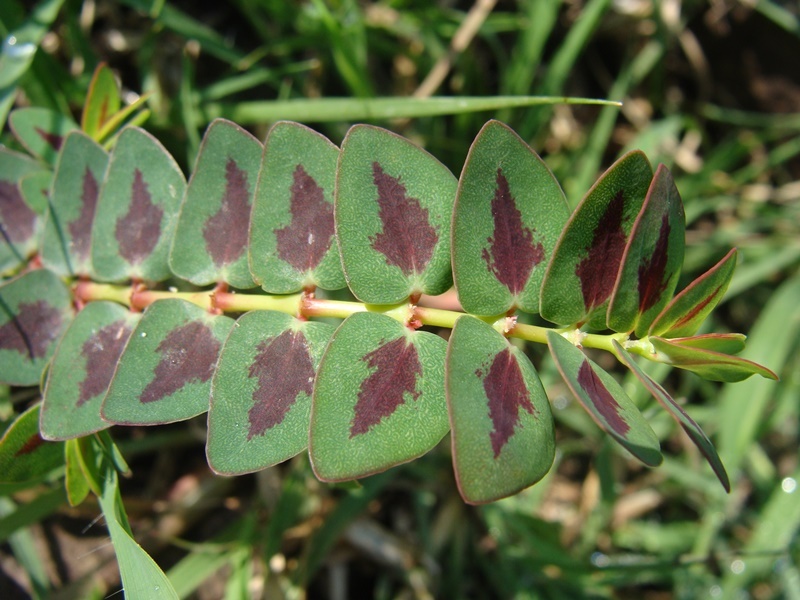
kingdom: Plantae
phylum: Tracheophyta
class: Magnoliopsida
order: Malpighiales
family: Euphorbiaceae
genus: Euphorbia
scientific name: Euphorbia umbellulata
